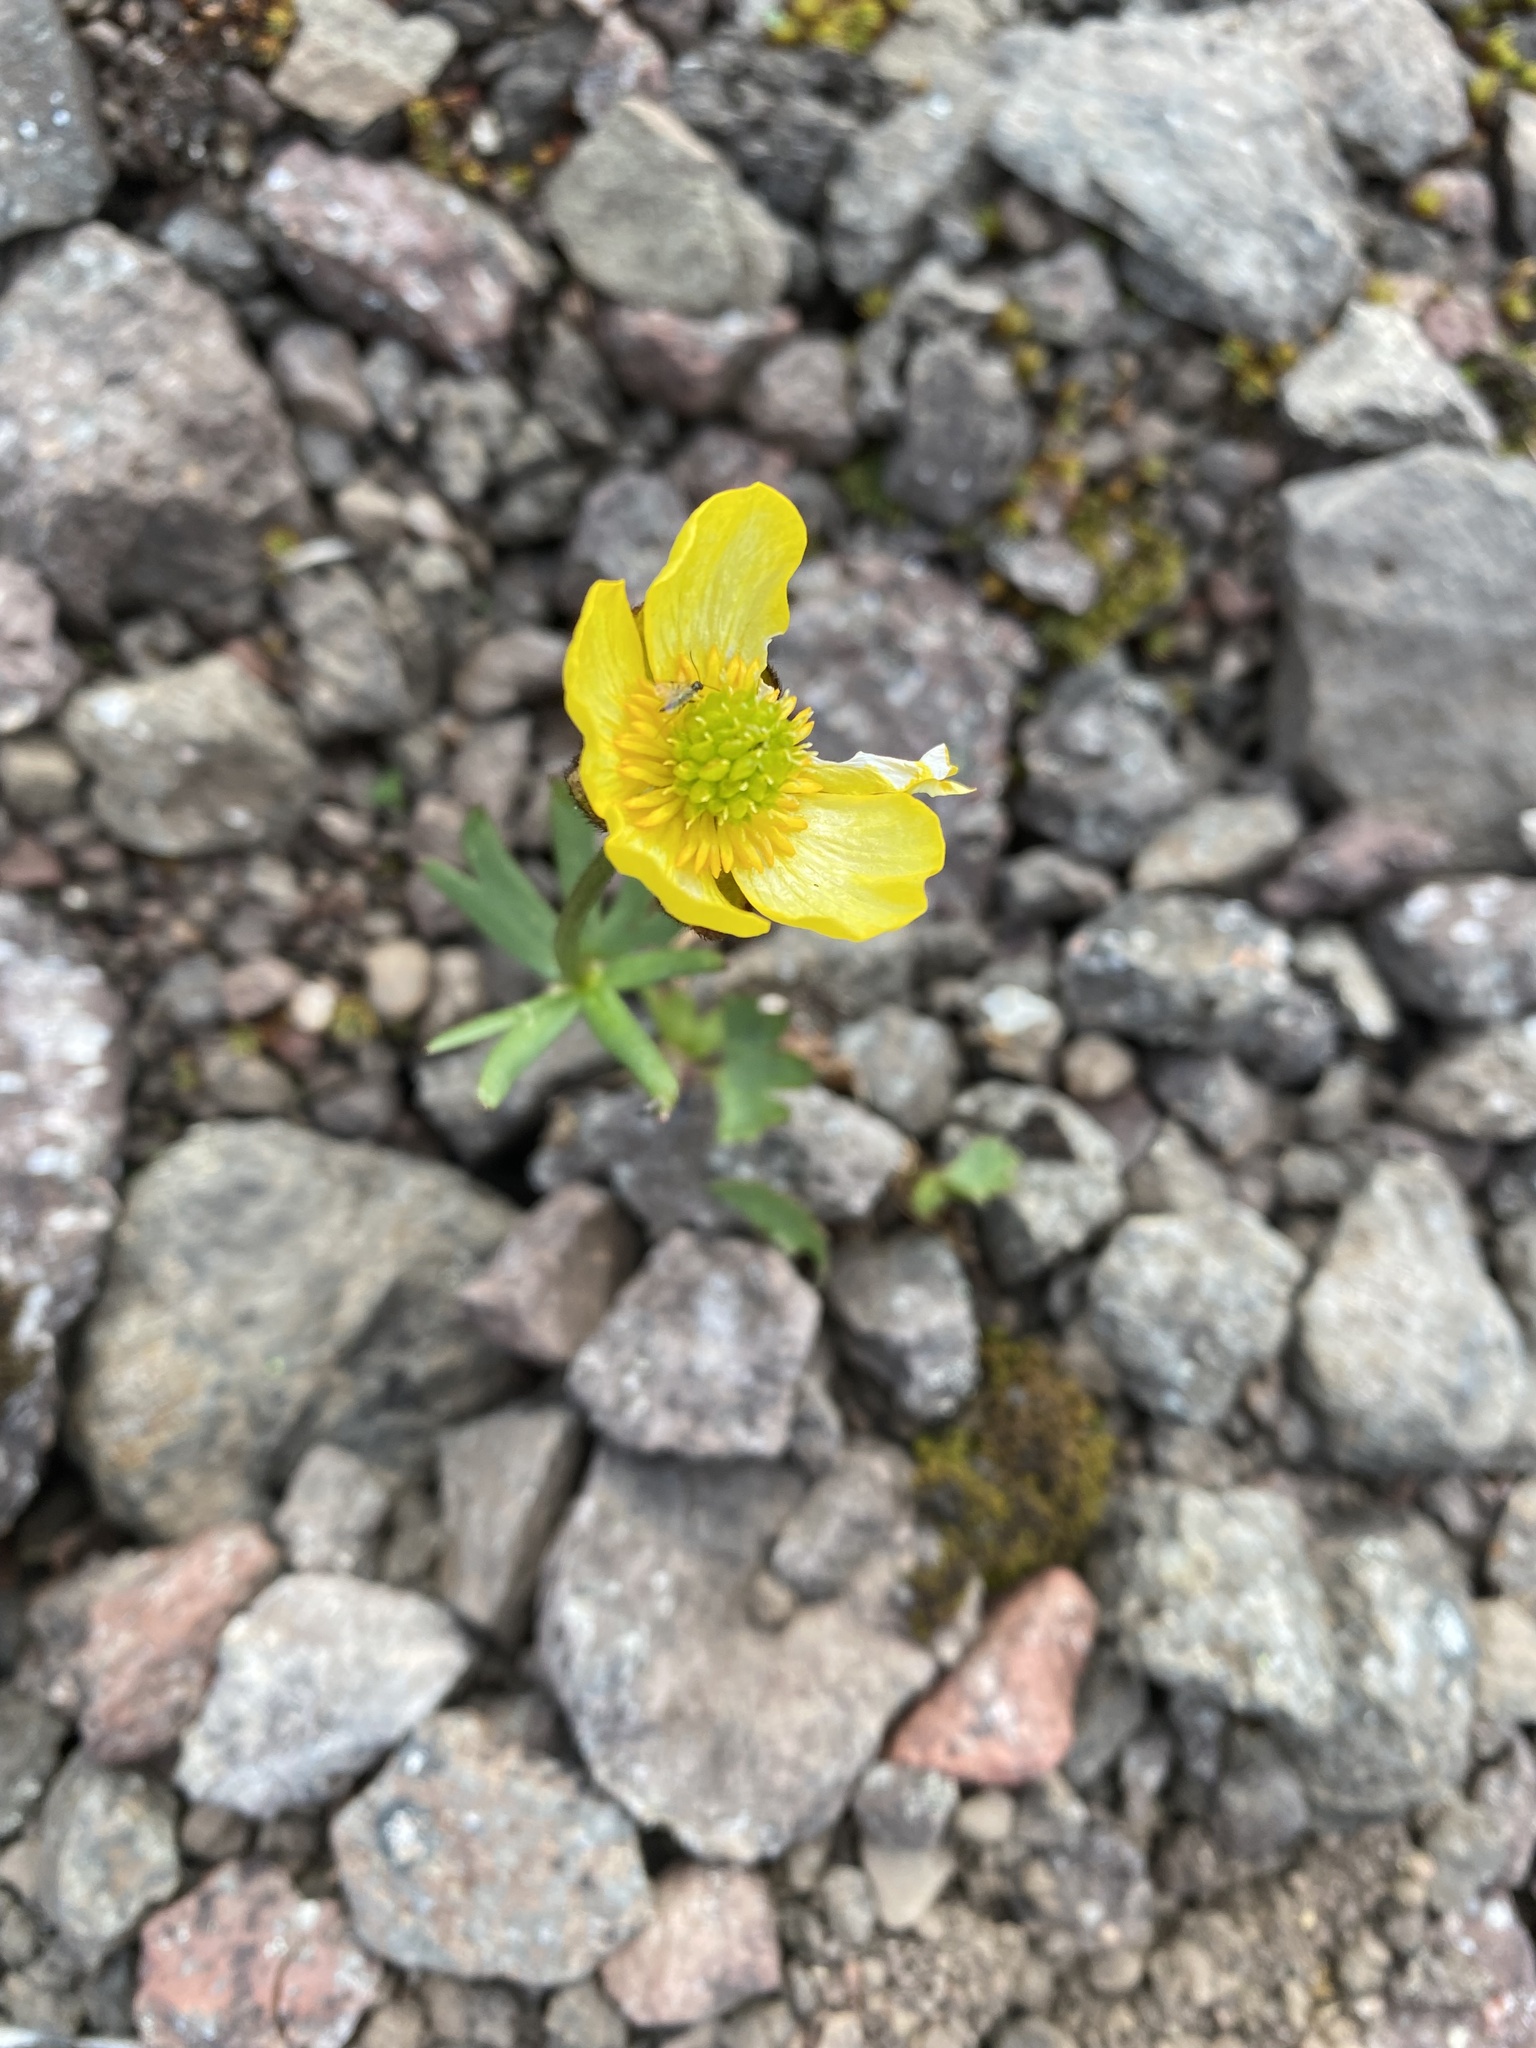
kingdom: Plantae
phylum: Tracheophyta
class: Magnoliopsida
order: Ranunculales
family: Ranunculaceae
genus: Ranunculus
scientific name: Ranunculus sulphureus
